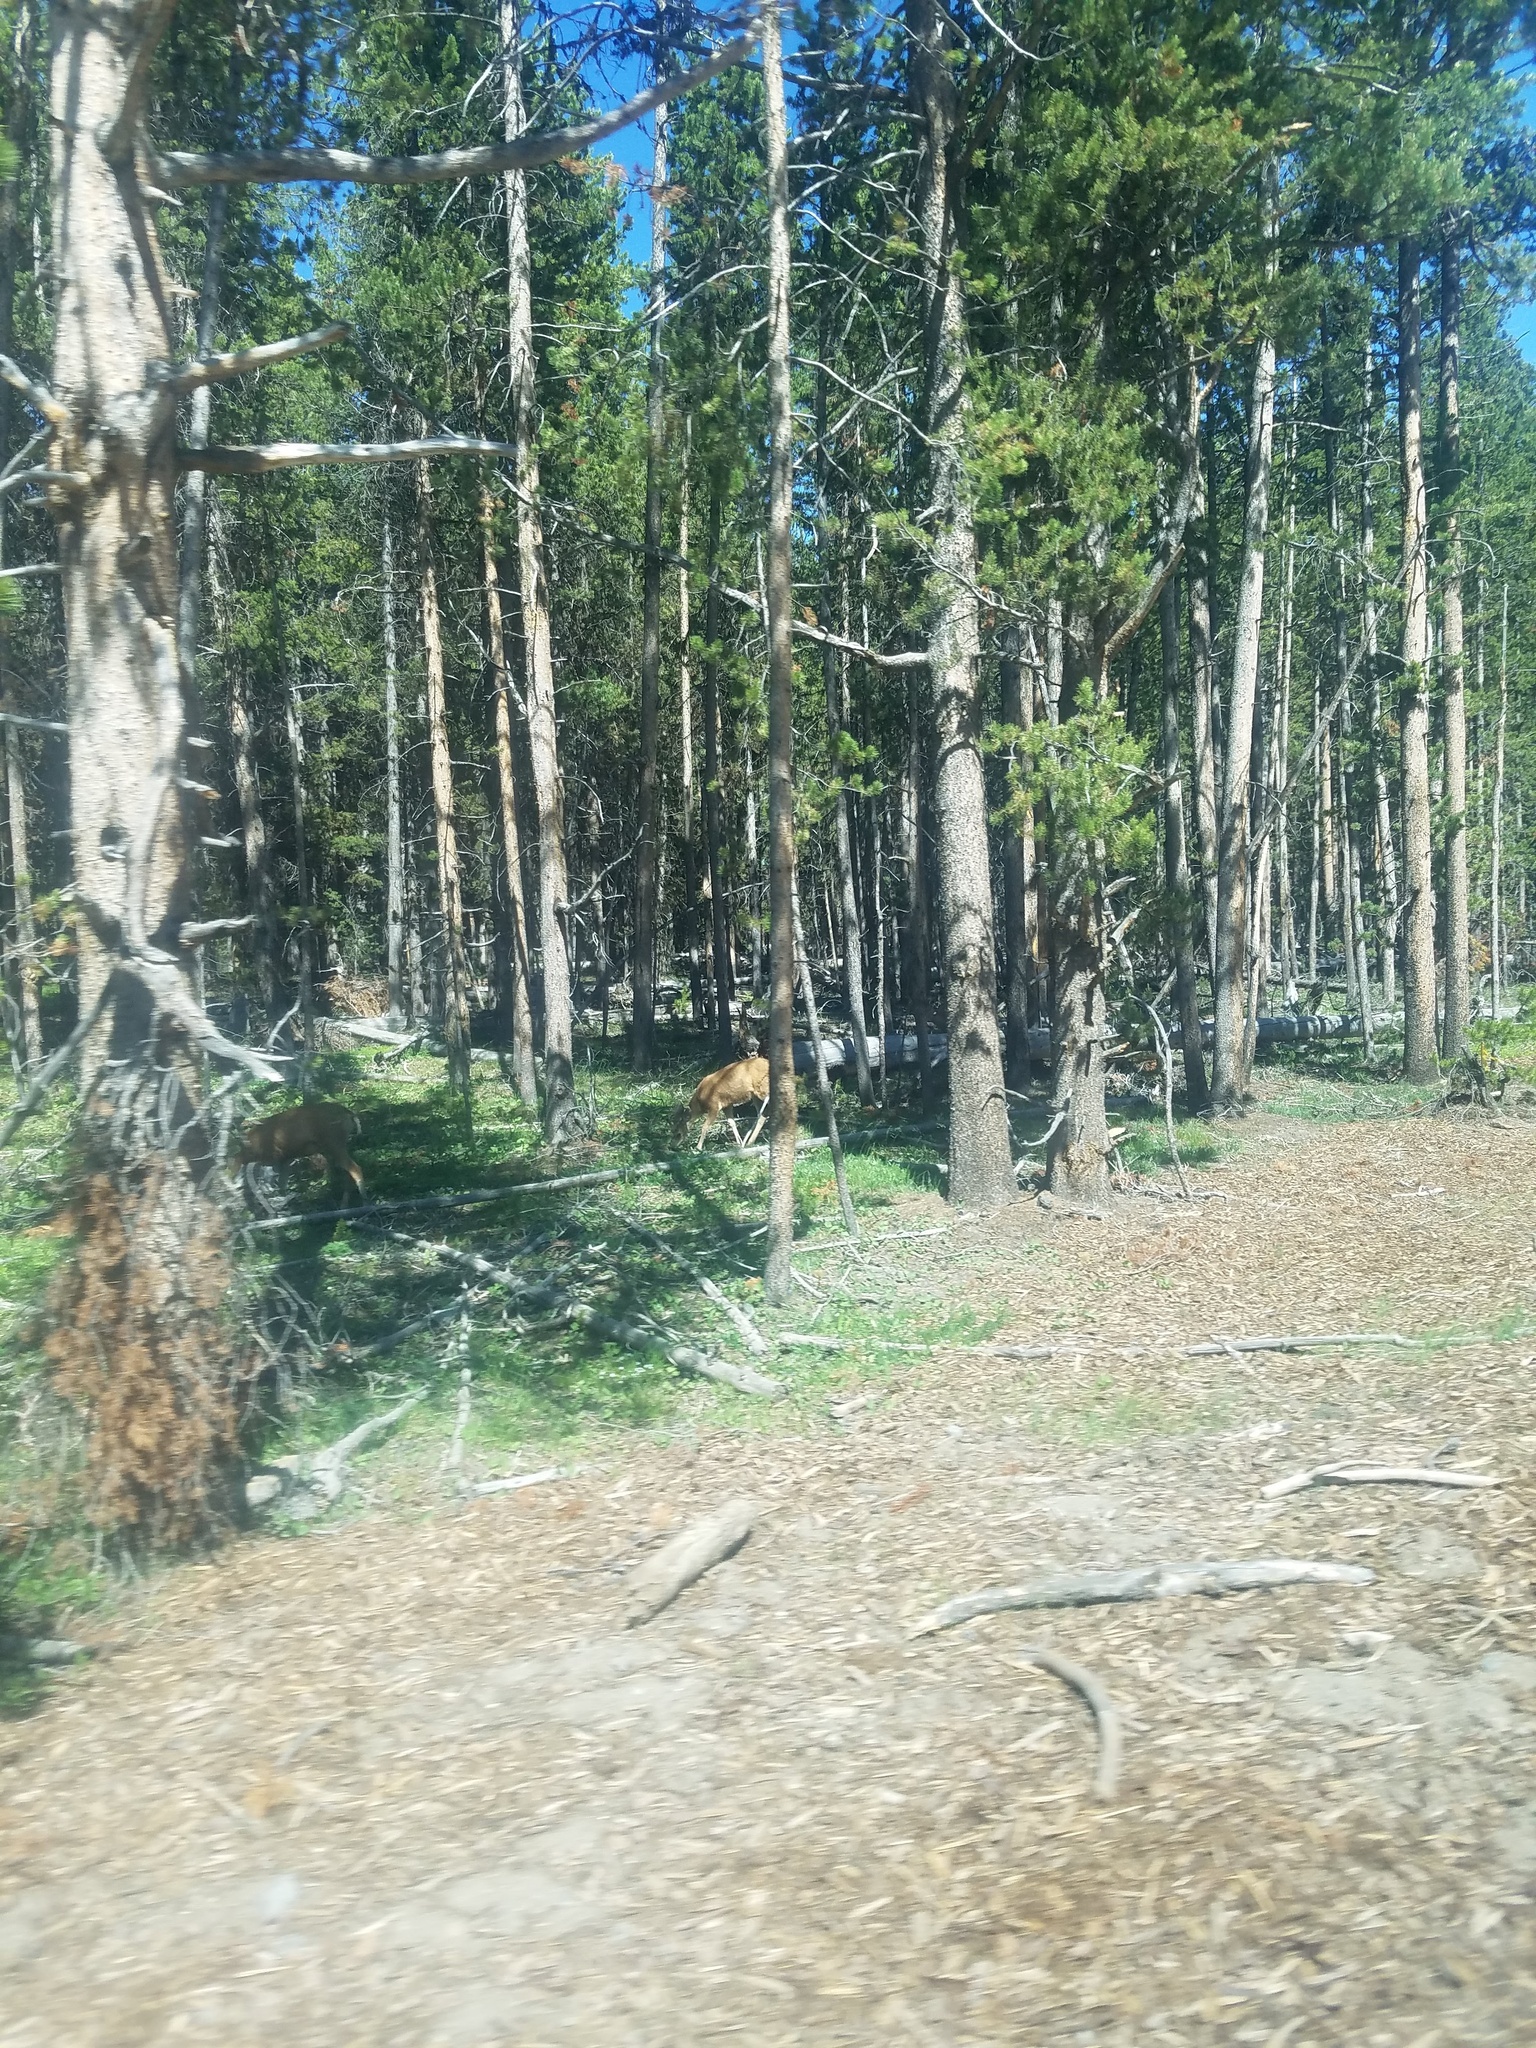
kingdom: Animalia
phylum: Chordata
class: Mammalia
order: Artiodactyla
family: Cervidae
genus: Odocoileus
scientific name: Odocoileus hemionus
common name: Mule deer
